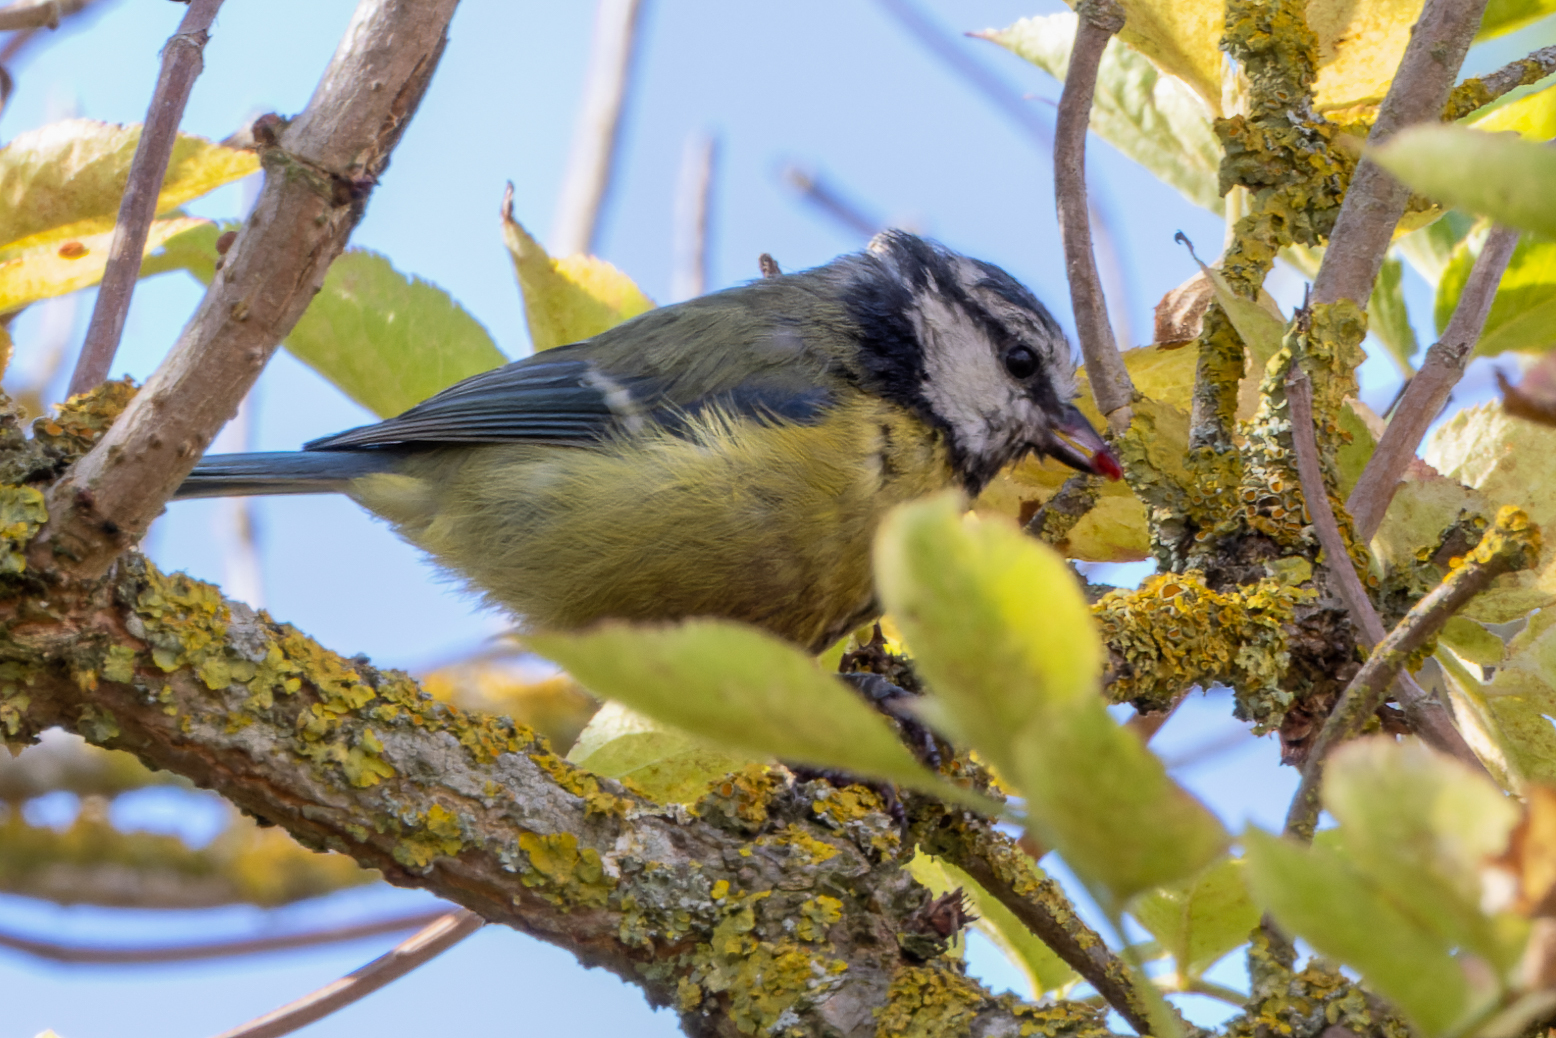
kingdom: Animalia
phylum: Chordata
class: Aves
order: Passeriformes
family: Paridae
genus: Cyanistes
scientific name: Cyanistes caeruleus
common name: Eurasian blue tit
